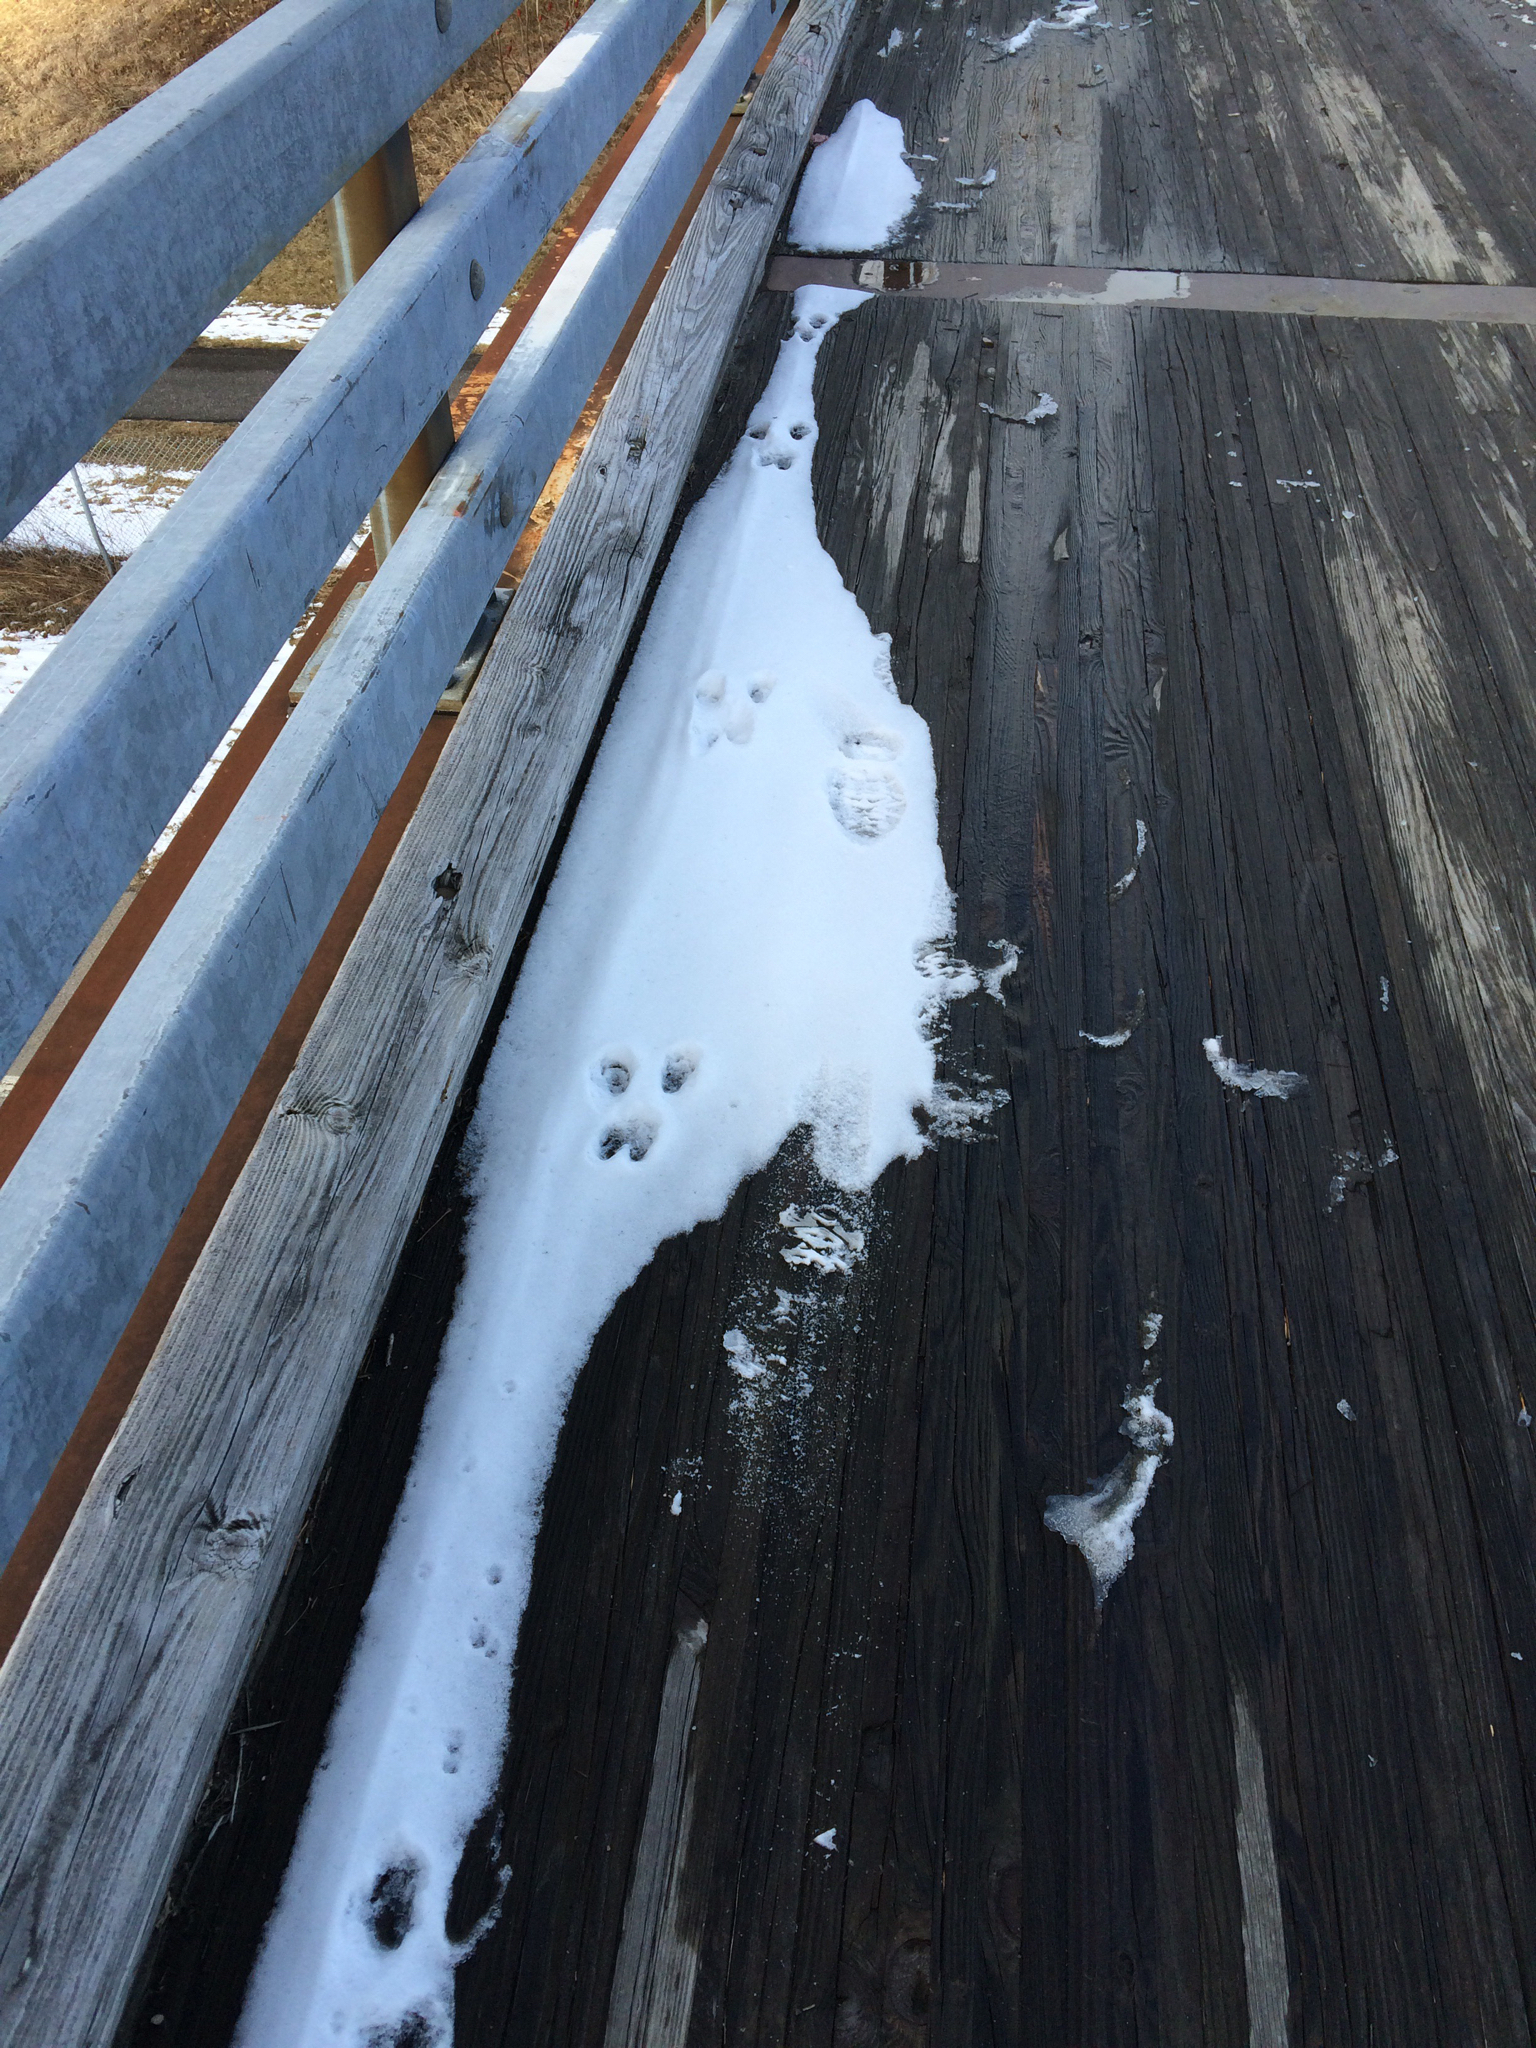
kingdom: Animalia
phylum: Chordata
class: Mammalia
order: Rodentia
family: Sciuridae
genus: Sciurus
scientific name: Sciurus carolinensis
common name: Eastern gray squirrel
